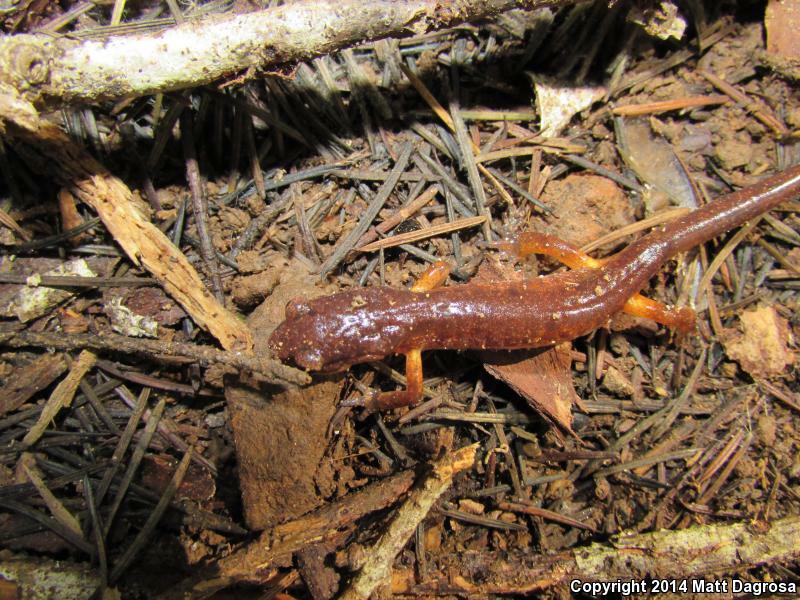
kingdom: Animalia
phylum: Chordata
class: Amphibia
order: Caudata
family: Plethodontidae
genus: Ensatina
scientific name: Ensatina eschscholtzii
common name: Ensatina
